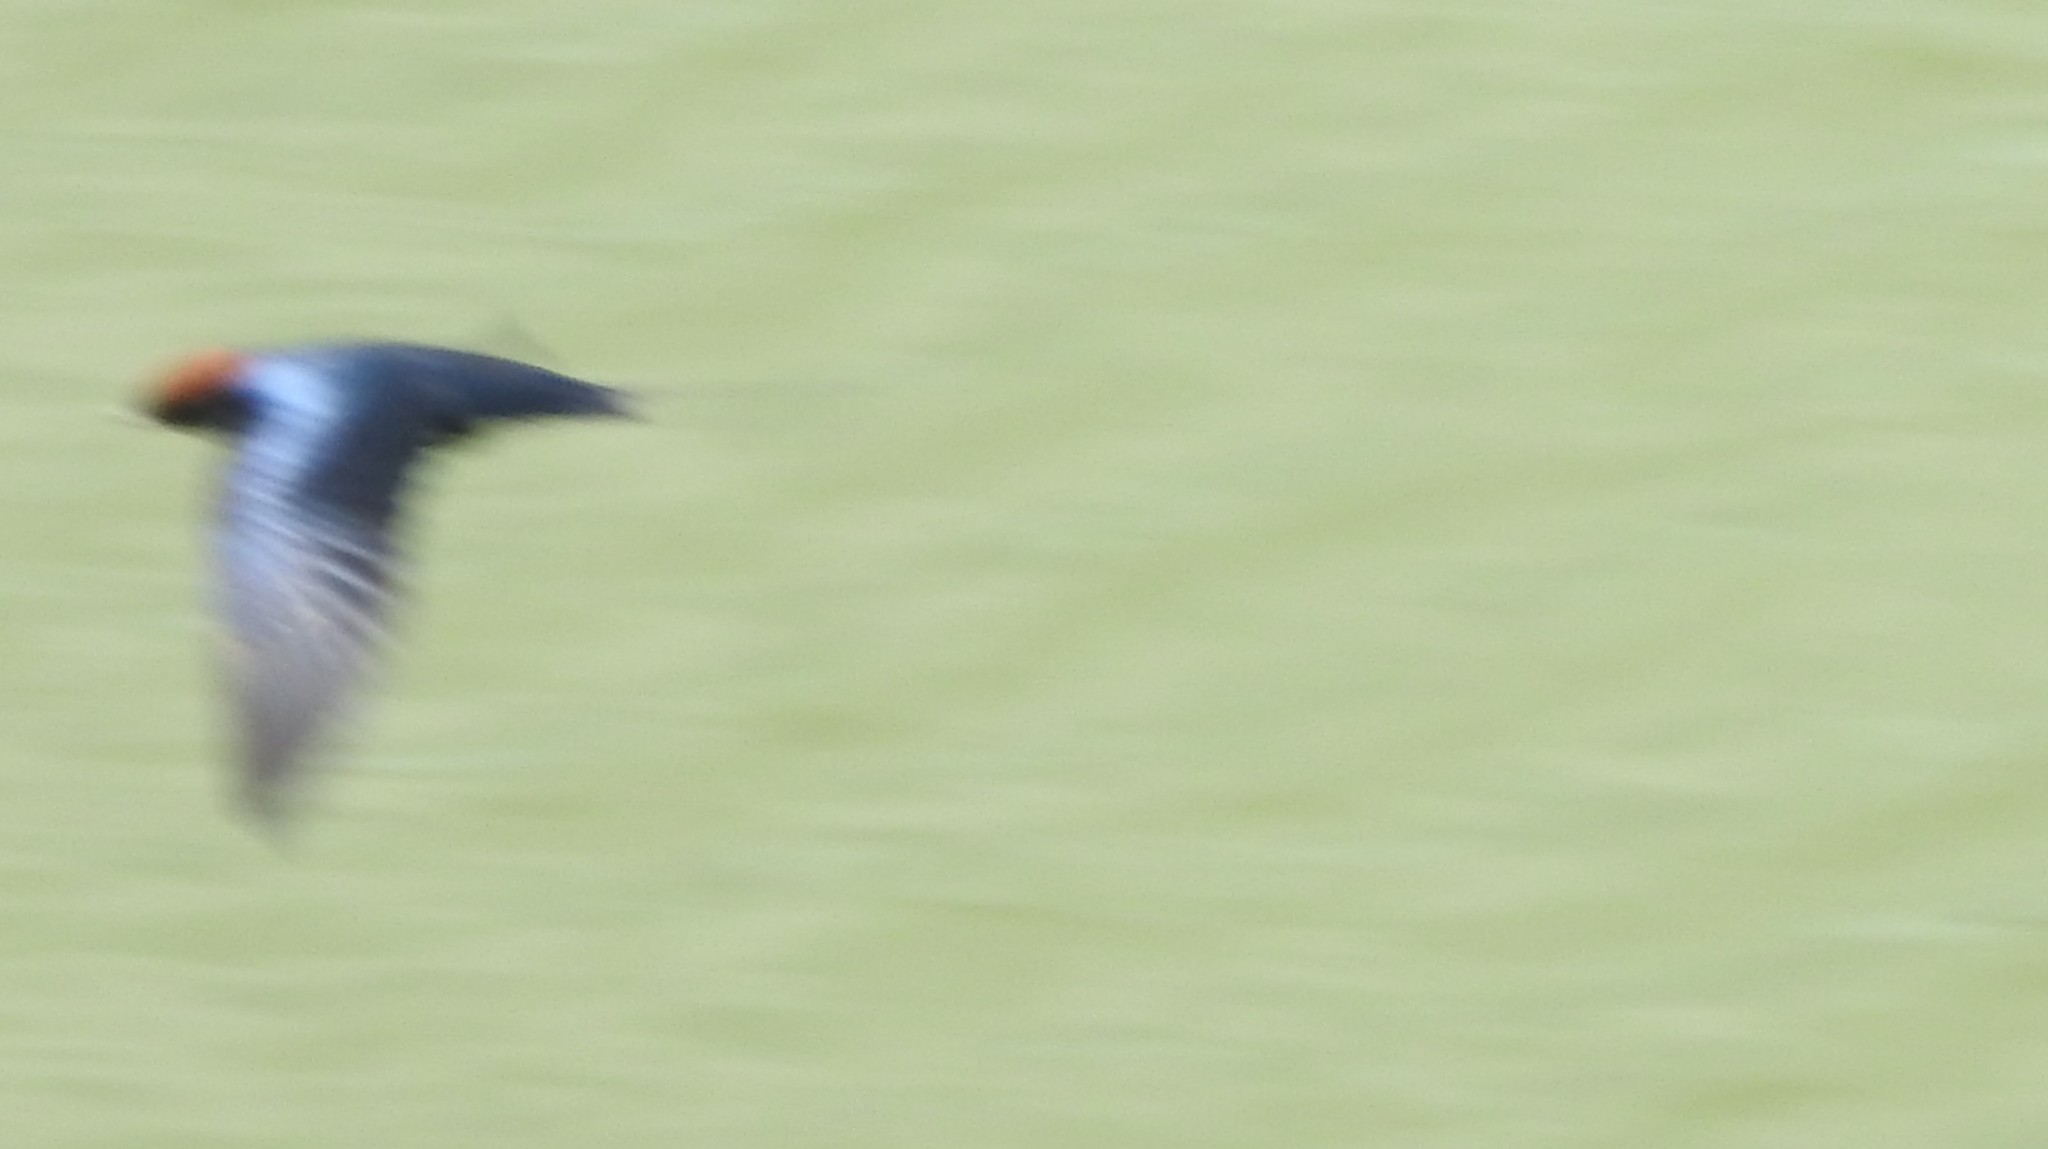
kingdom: Animalia
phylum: Chordata
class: Aves
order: Passeriformes
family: Hirundinidae
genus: Hirundo
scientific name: Hirundo smithii
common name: Wire-tailed swallow
